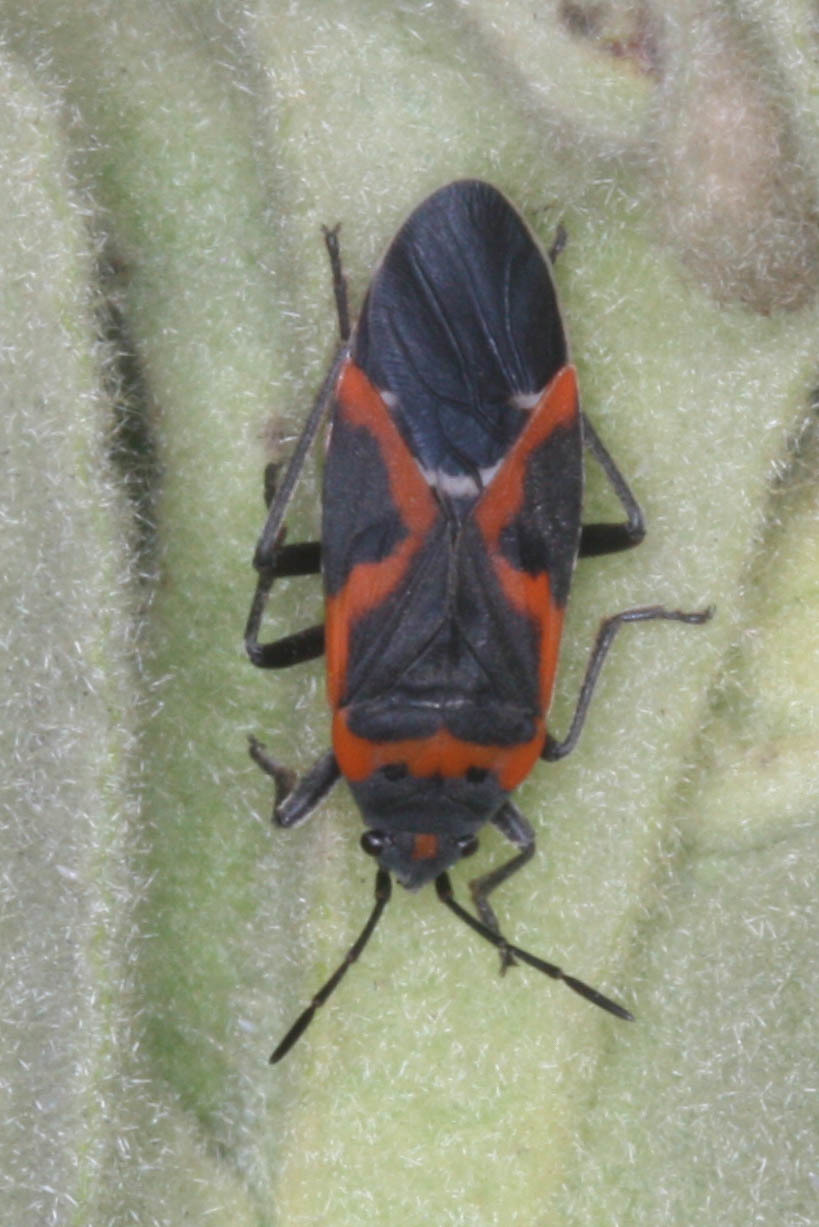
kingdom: Animalia
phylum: Arthropoda
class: Insecta
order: Hemiptera
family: Lygaeidae
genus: Lygaeus
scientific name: Lygaeus kalmii
